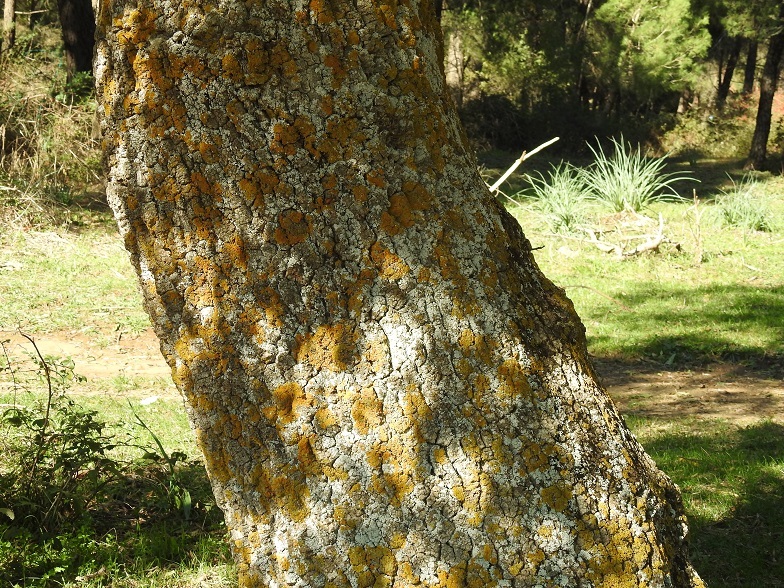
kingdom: Plantae
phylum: Tracheophyta
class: Magnoliopsida
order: Lamiales
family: Oleaceae
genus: Fraxinus
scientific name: Fraxinus angustifolia
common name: Narrow-leafed ash
